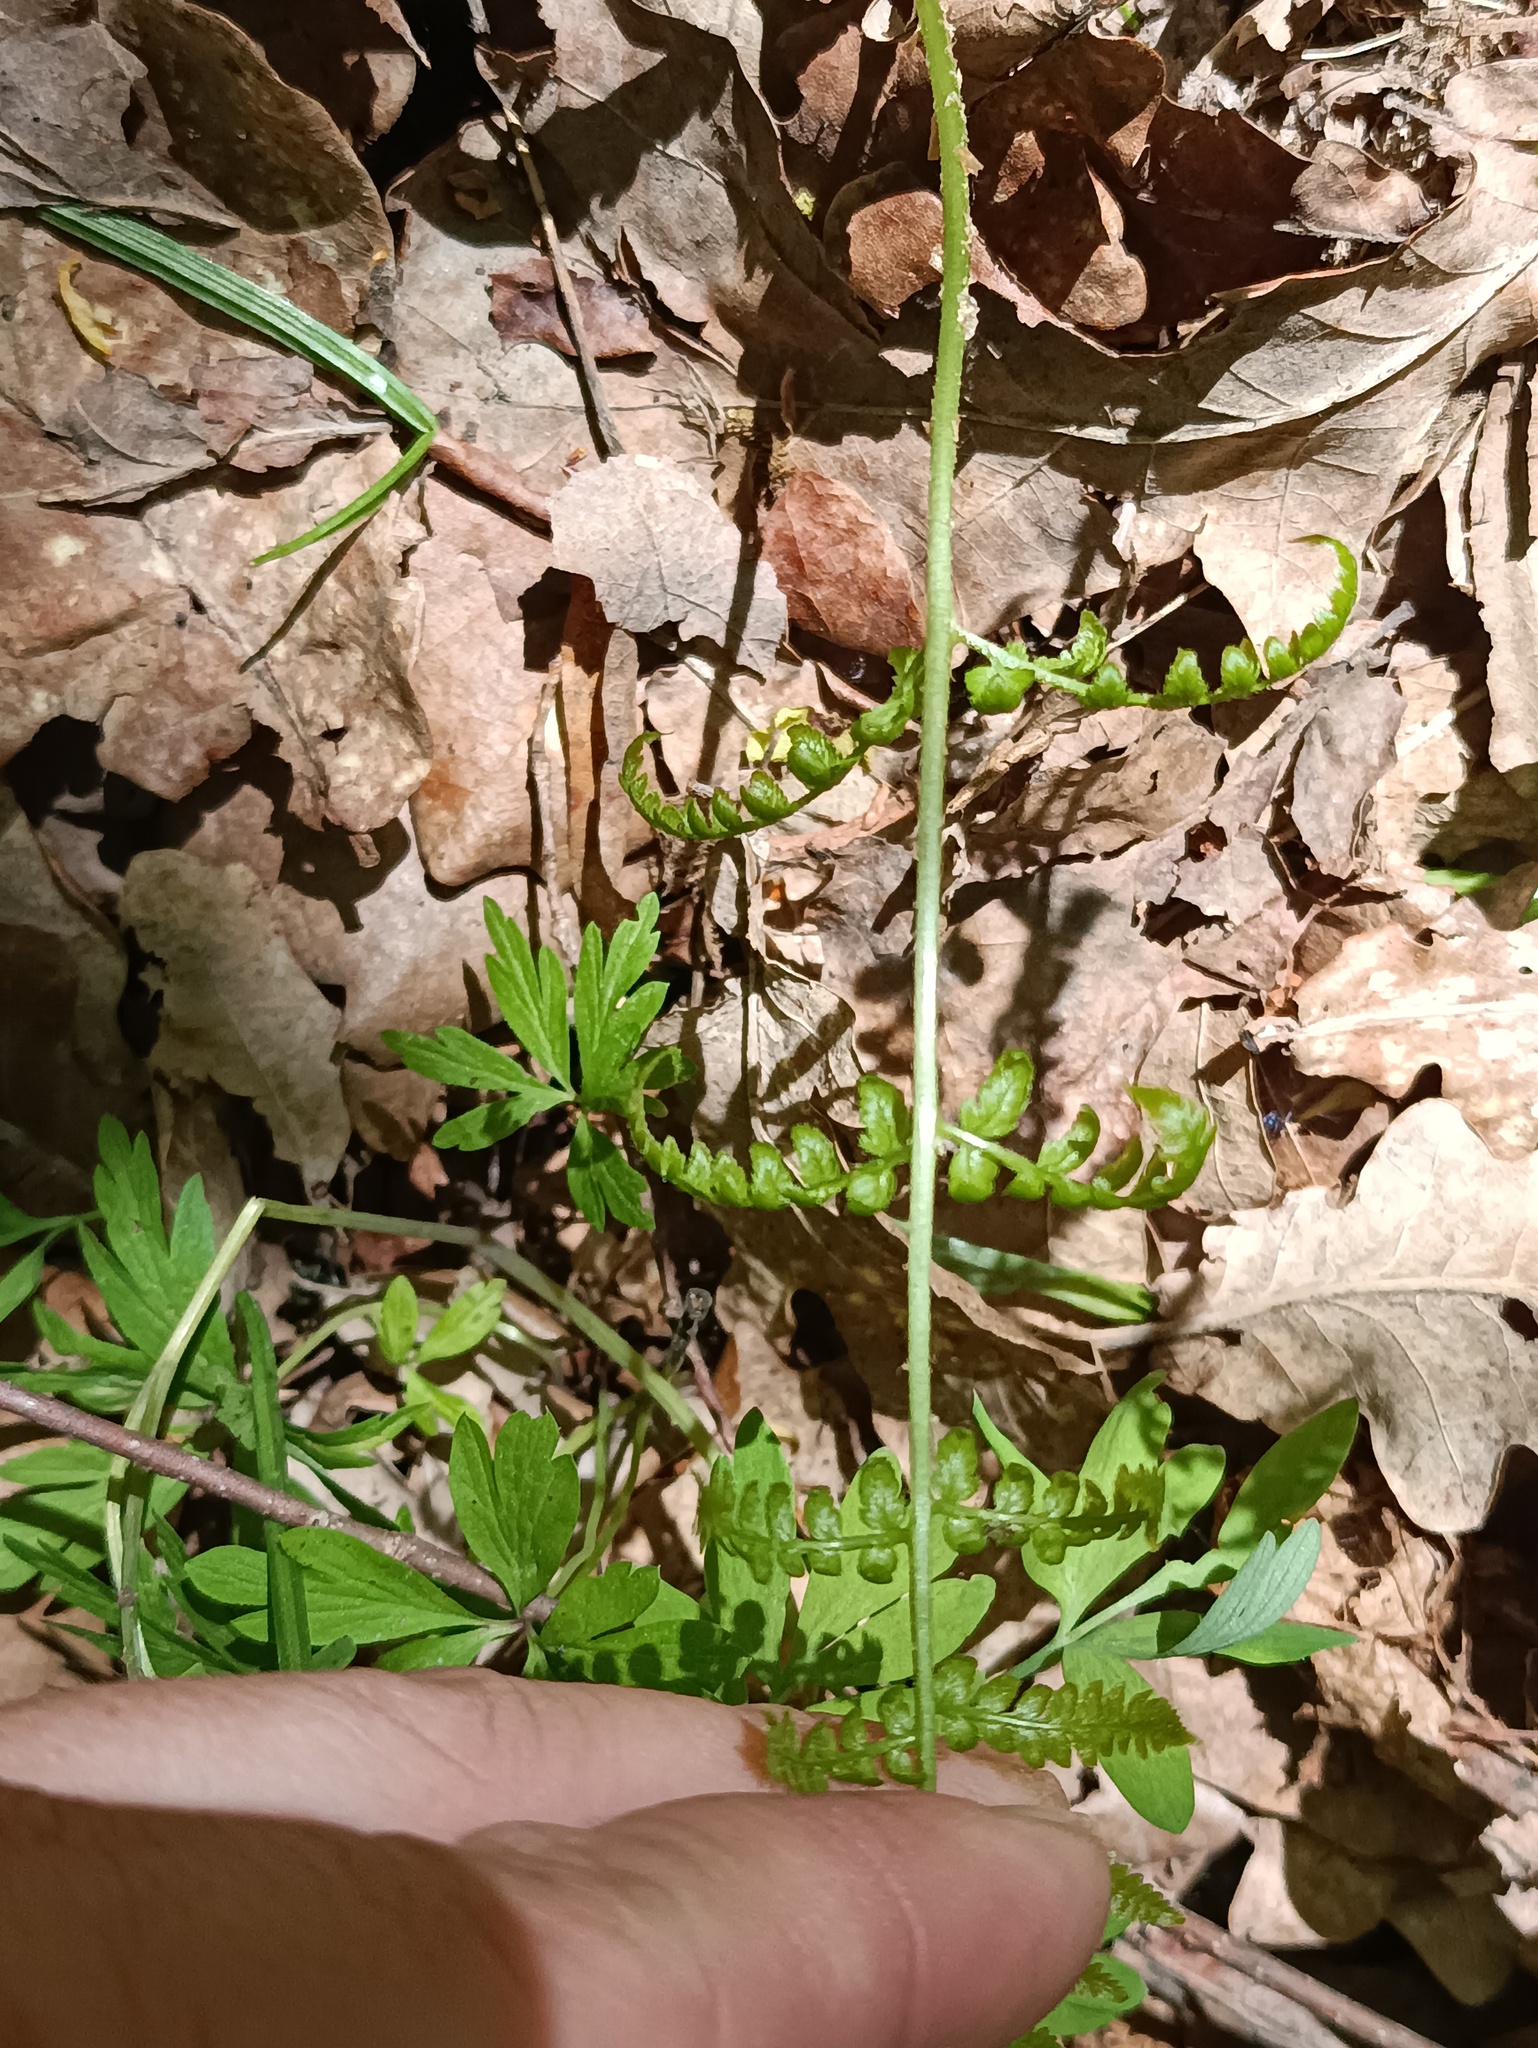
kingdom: Plantae
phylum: Tracheophyta
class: Polypodiopsida
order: Polypodiales
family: Dryopteridaceae
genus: Dryopteris
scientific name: Dryopteris carthusiana
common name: Narrow buckler-fern
